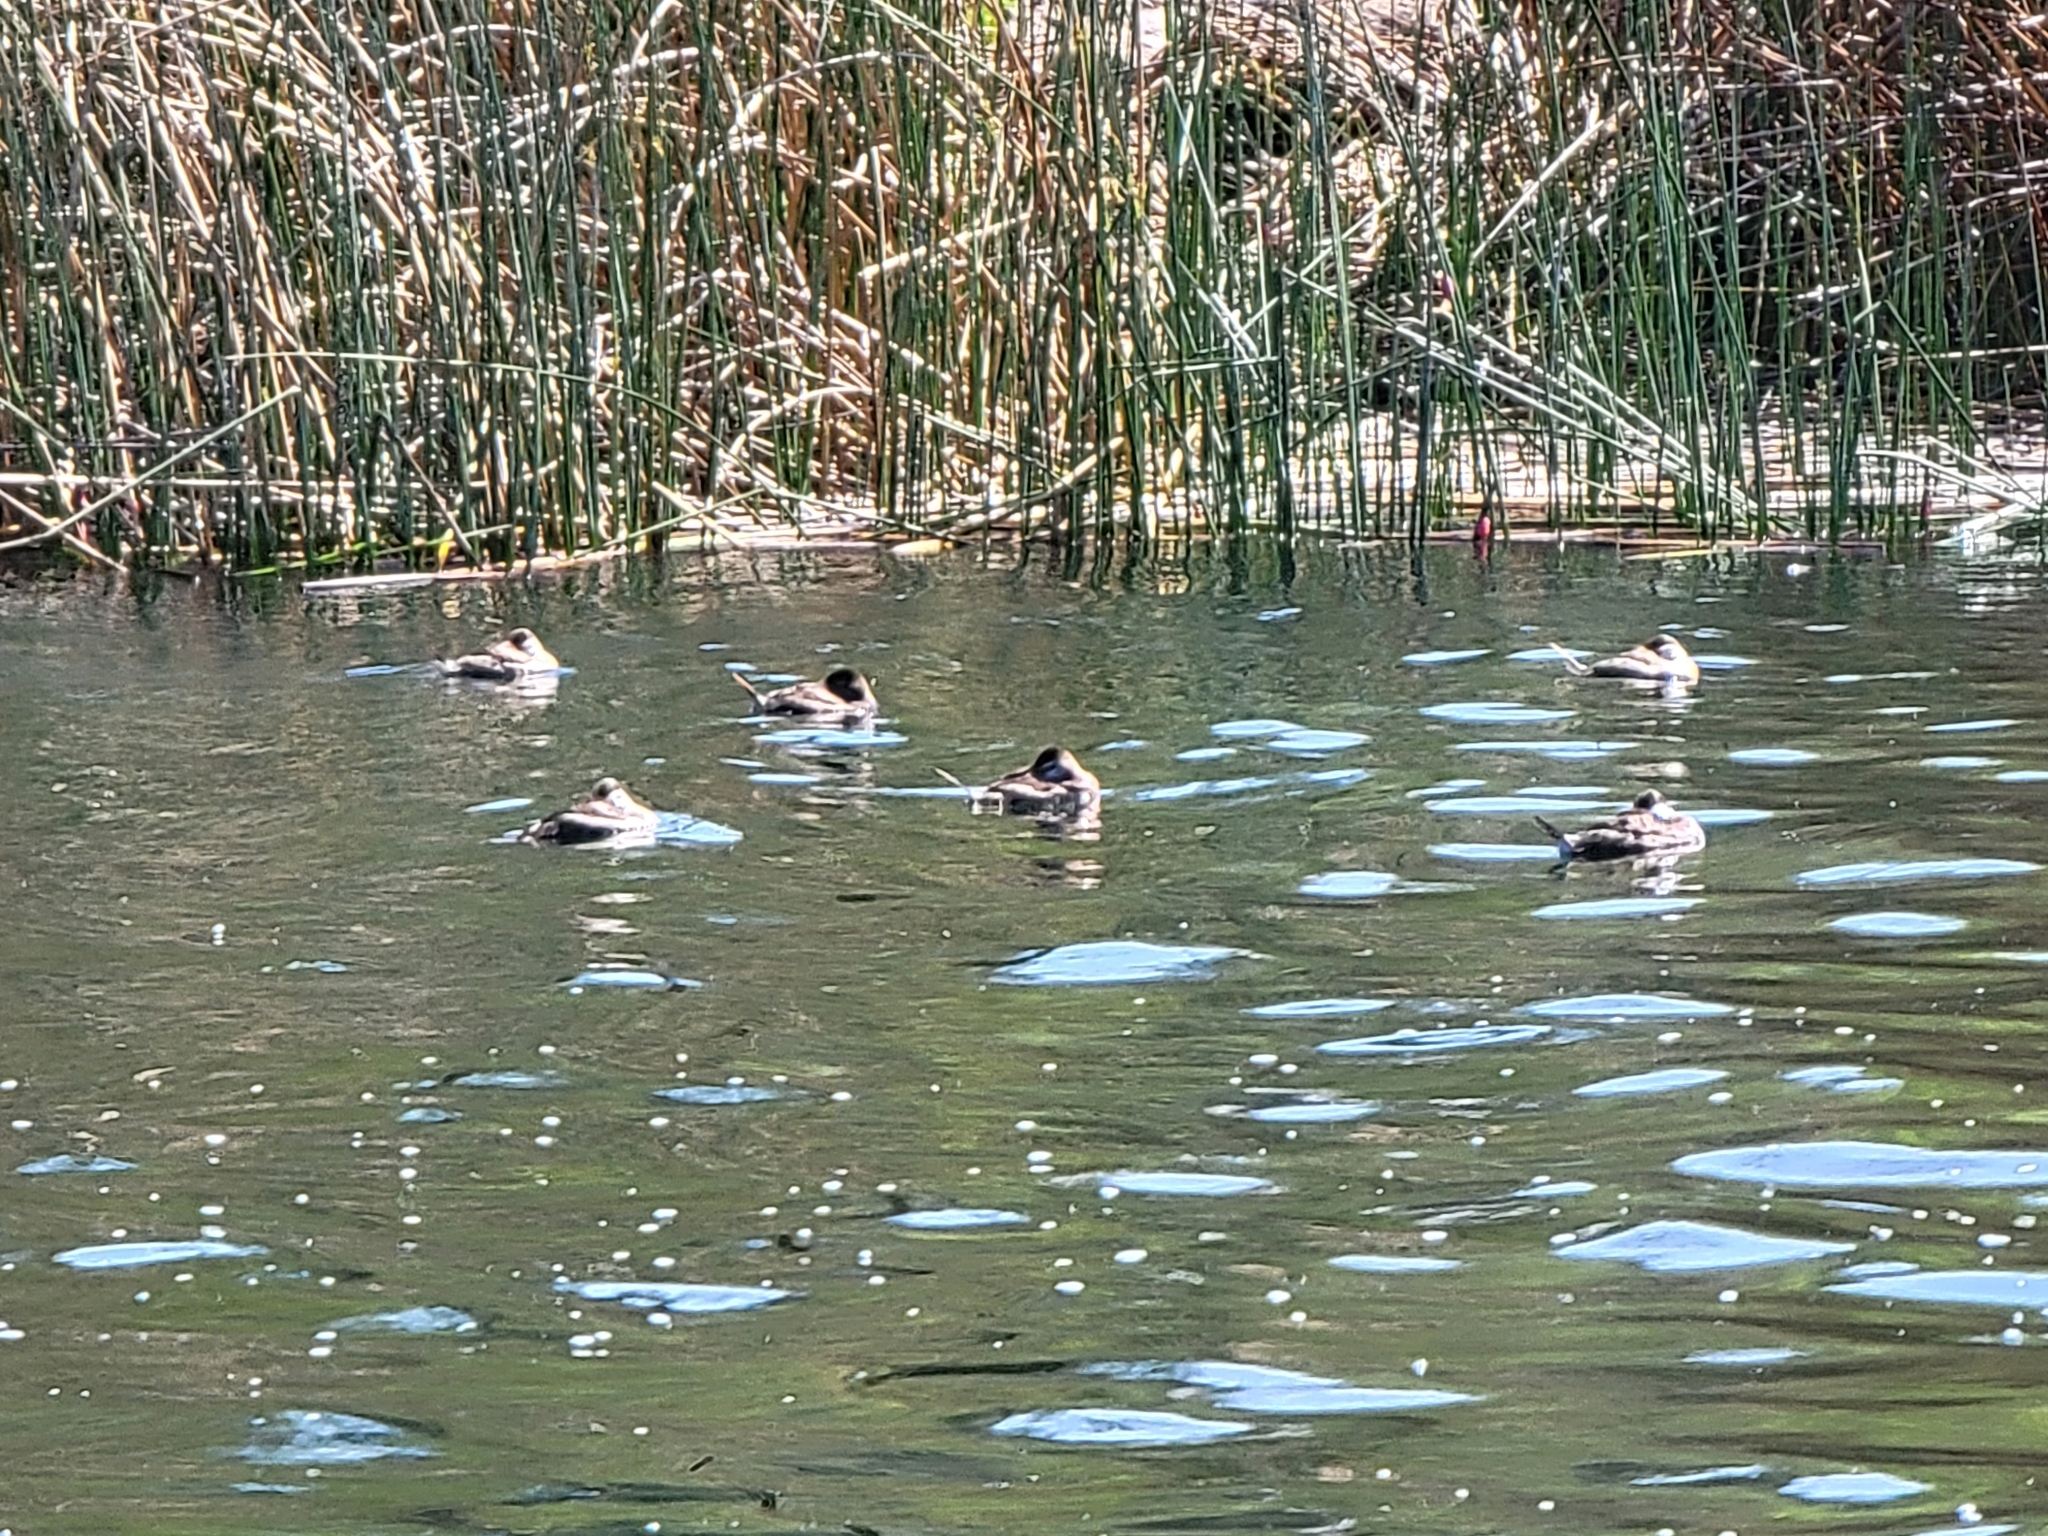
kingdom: Animalia
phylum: Chordata
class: Aves
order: Anseriformes
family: Anatidae
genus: Oxyura
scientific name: Oxyura jamaicensis
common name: Ruddy duck
